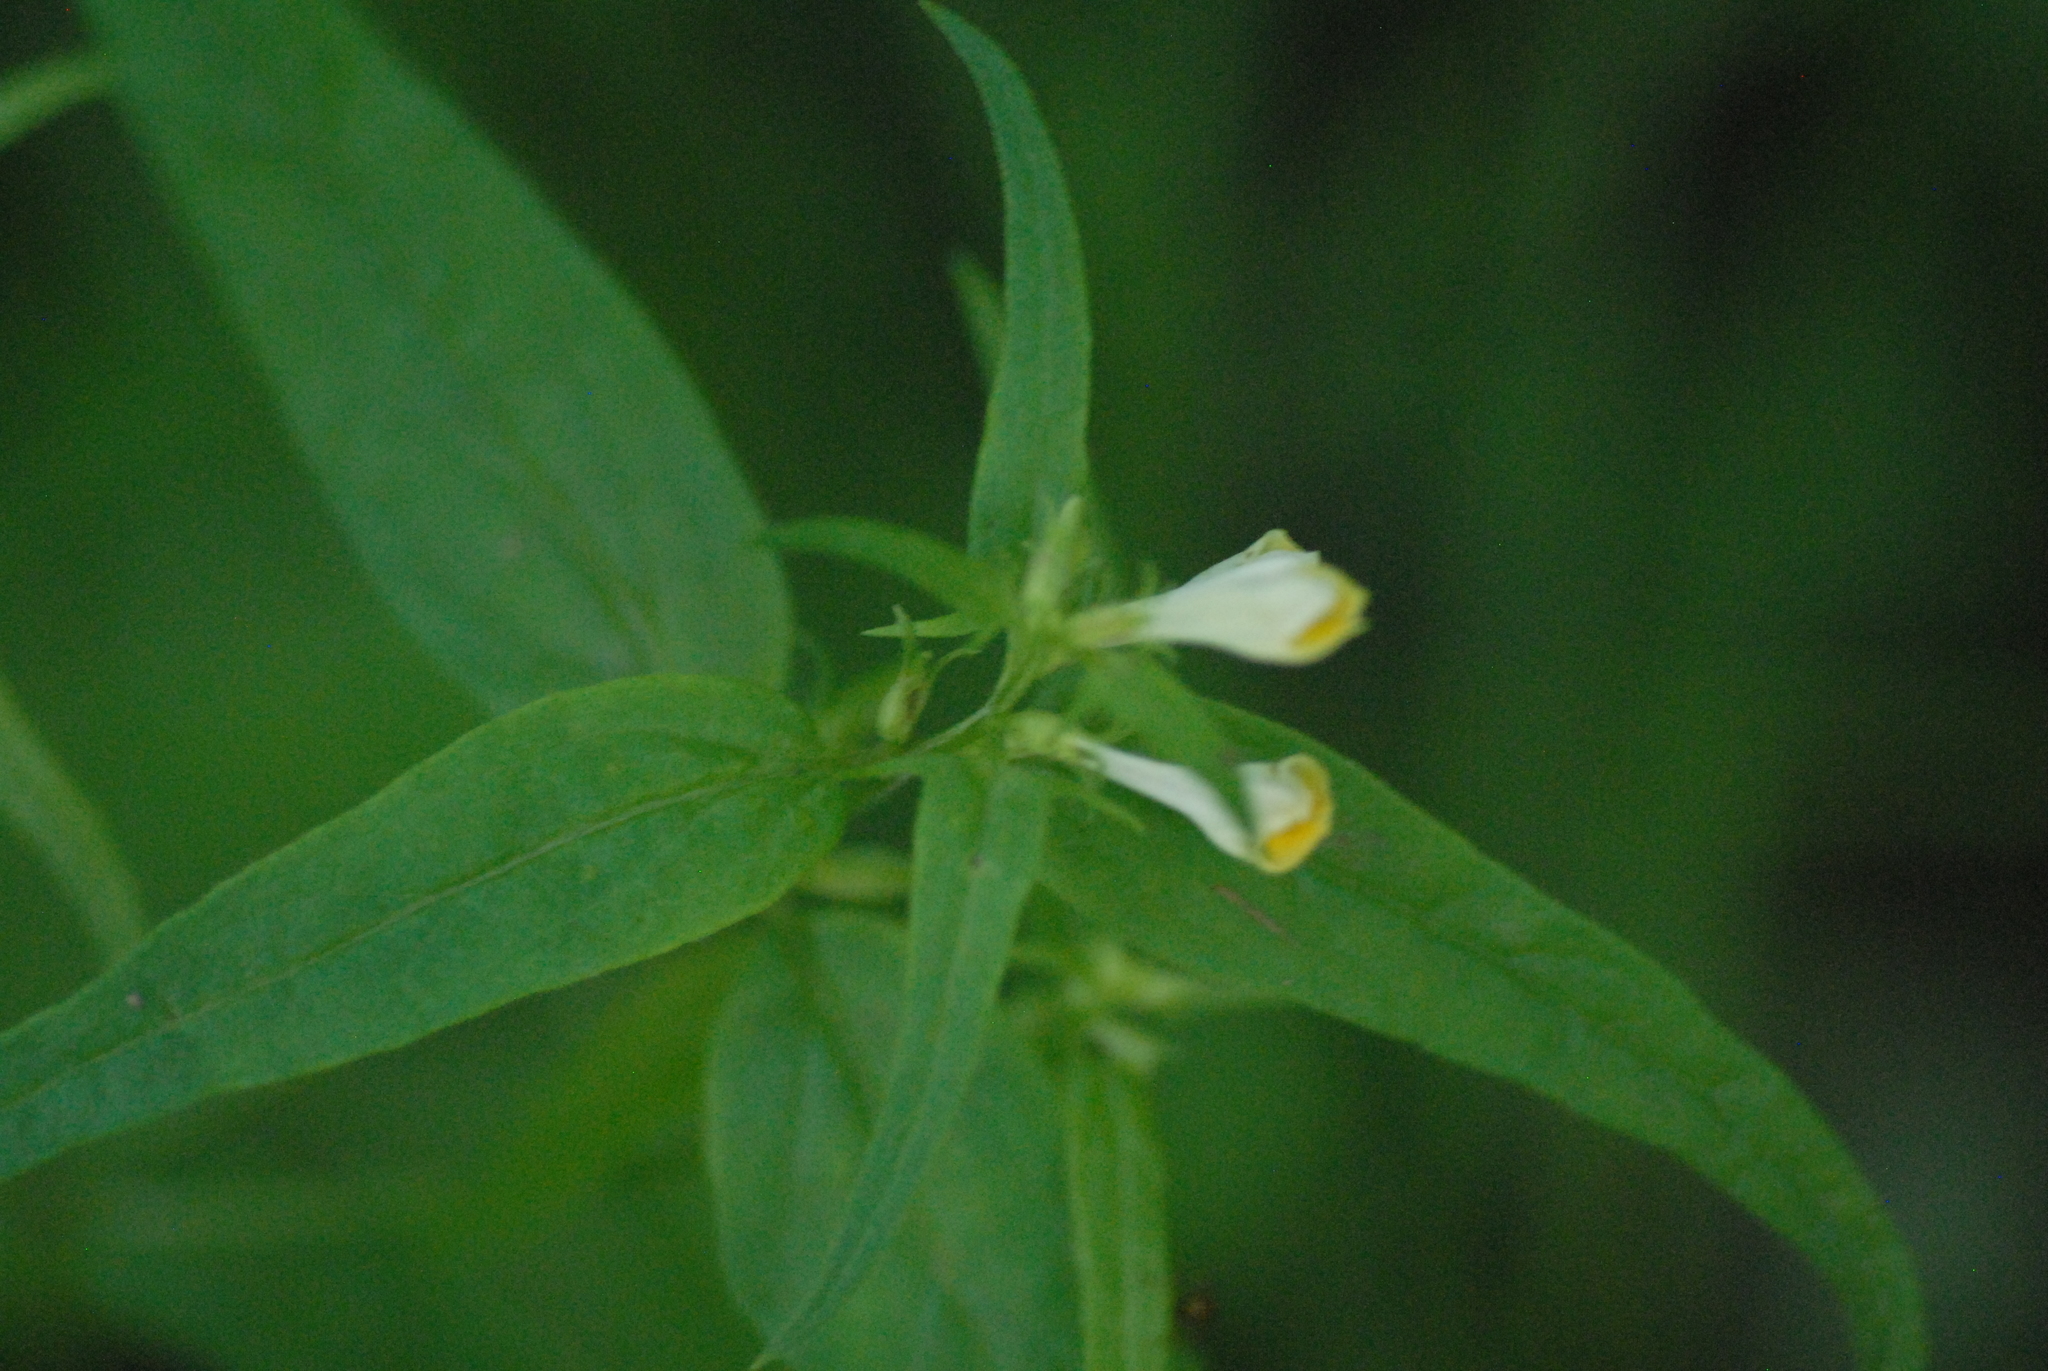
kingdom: Plantae
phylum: Tracheophyta
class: Magnoliopsida
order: Lamiales
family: Orobanchaceae
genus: Melampyrum
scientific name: Melampyrum pratense
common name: Common cow-wheat
